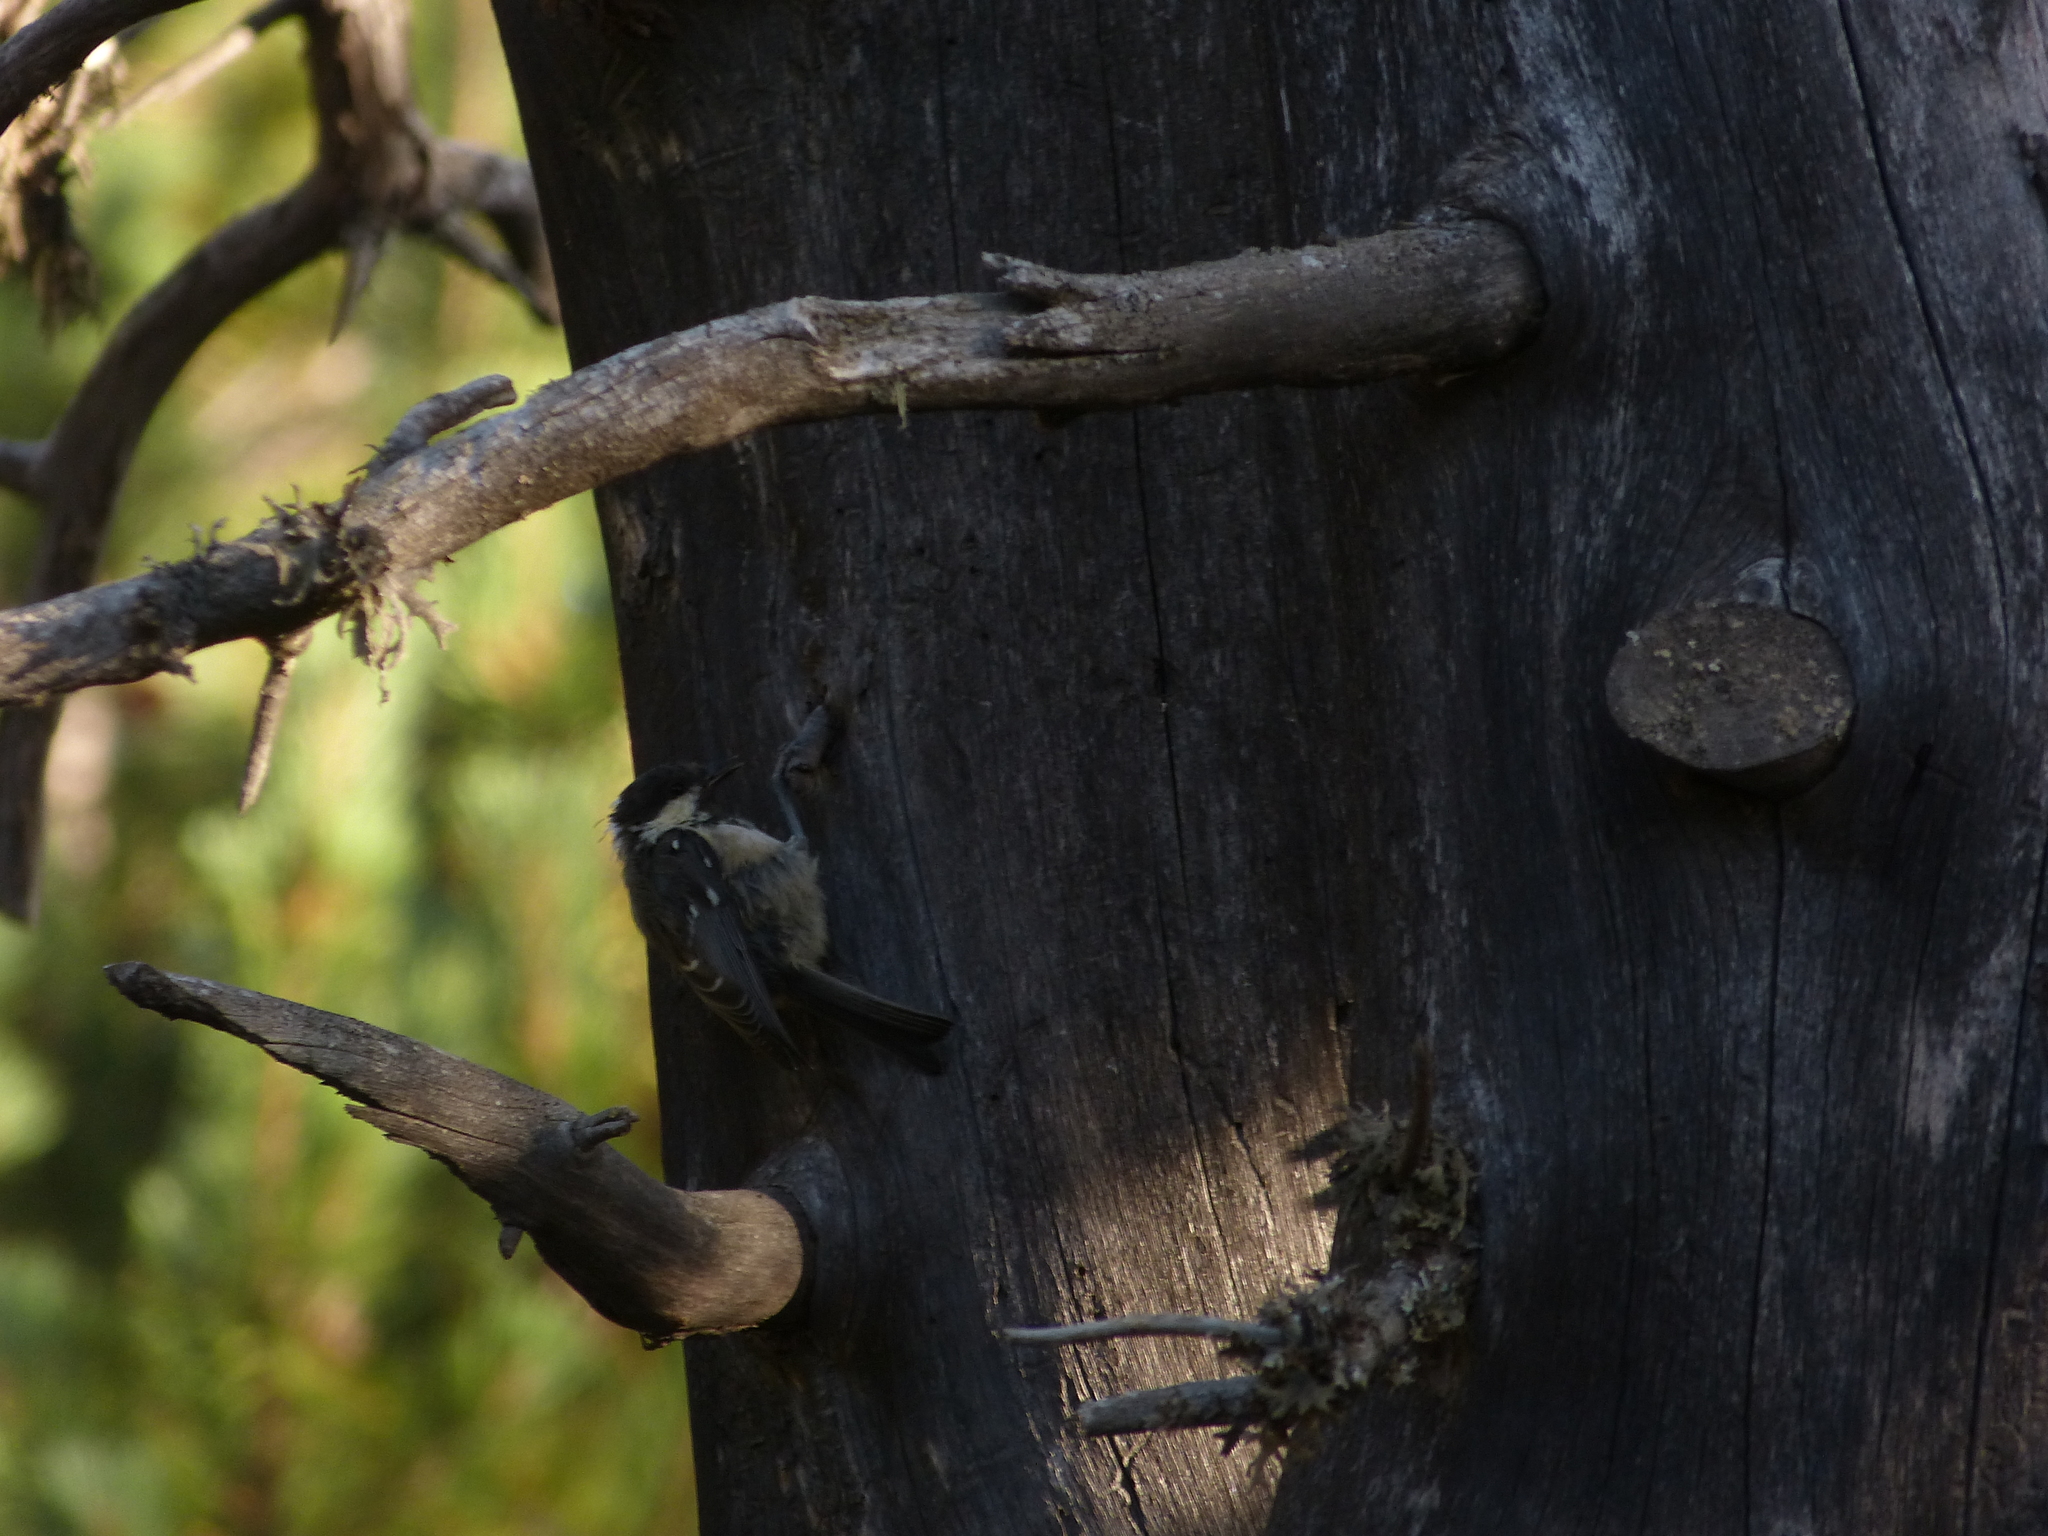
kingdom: Animalia
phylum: Chordata
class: Aves
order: Passeriformes
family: Paridae
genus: Periparus
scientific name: Periparus ater
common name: Coal tit
